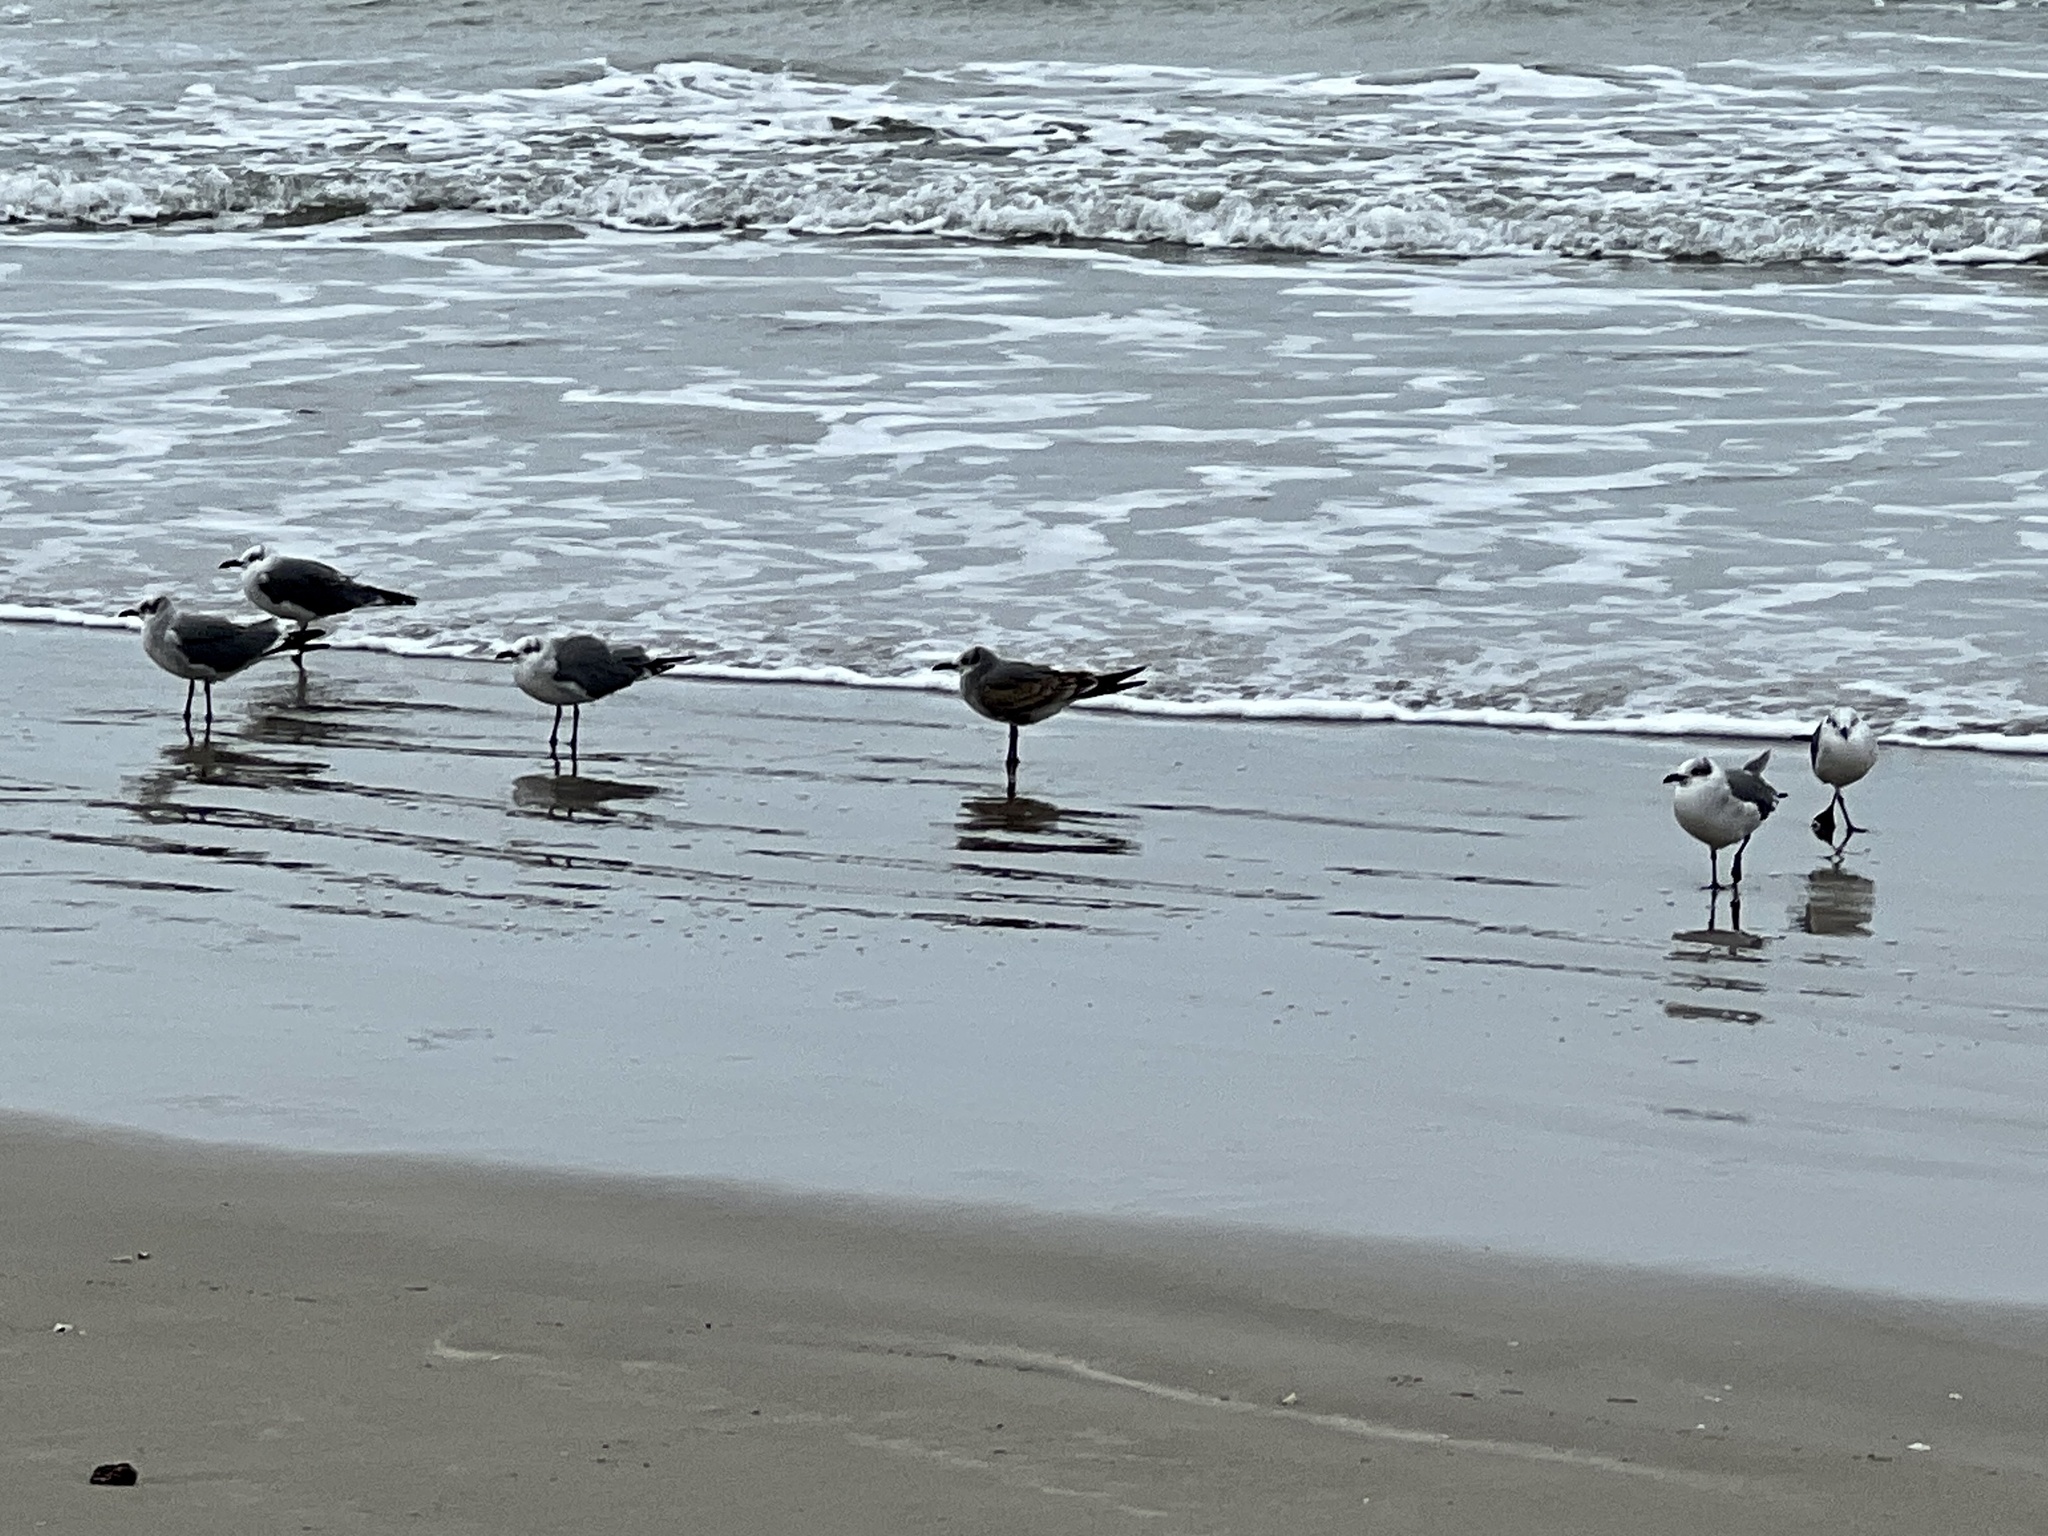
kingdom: Animalia
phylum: Chordata
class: Aves
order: Charadriiformes
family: Laridae
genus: Leucophaeus
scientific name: Leucophaeus atricilla
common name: Laughing gull
